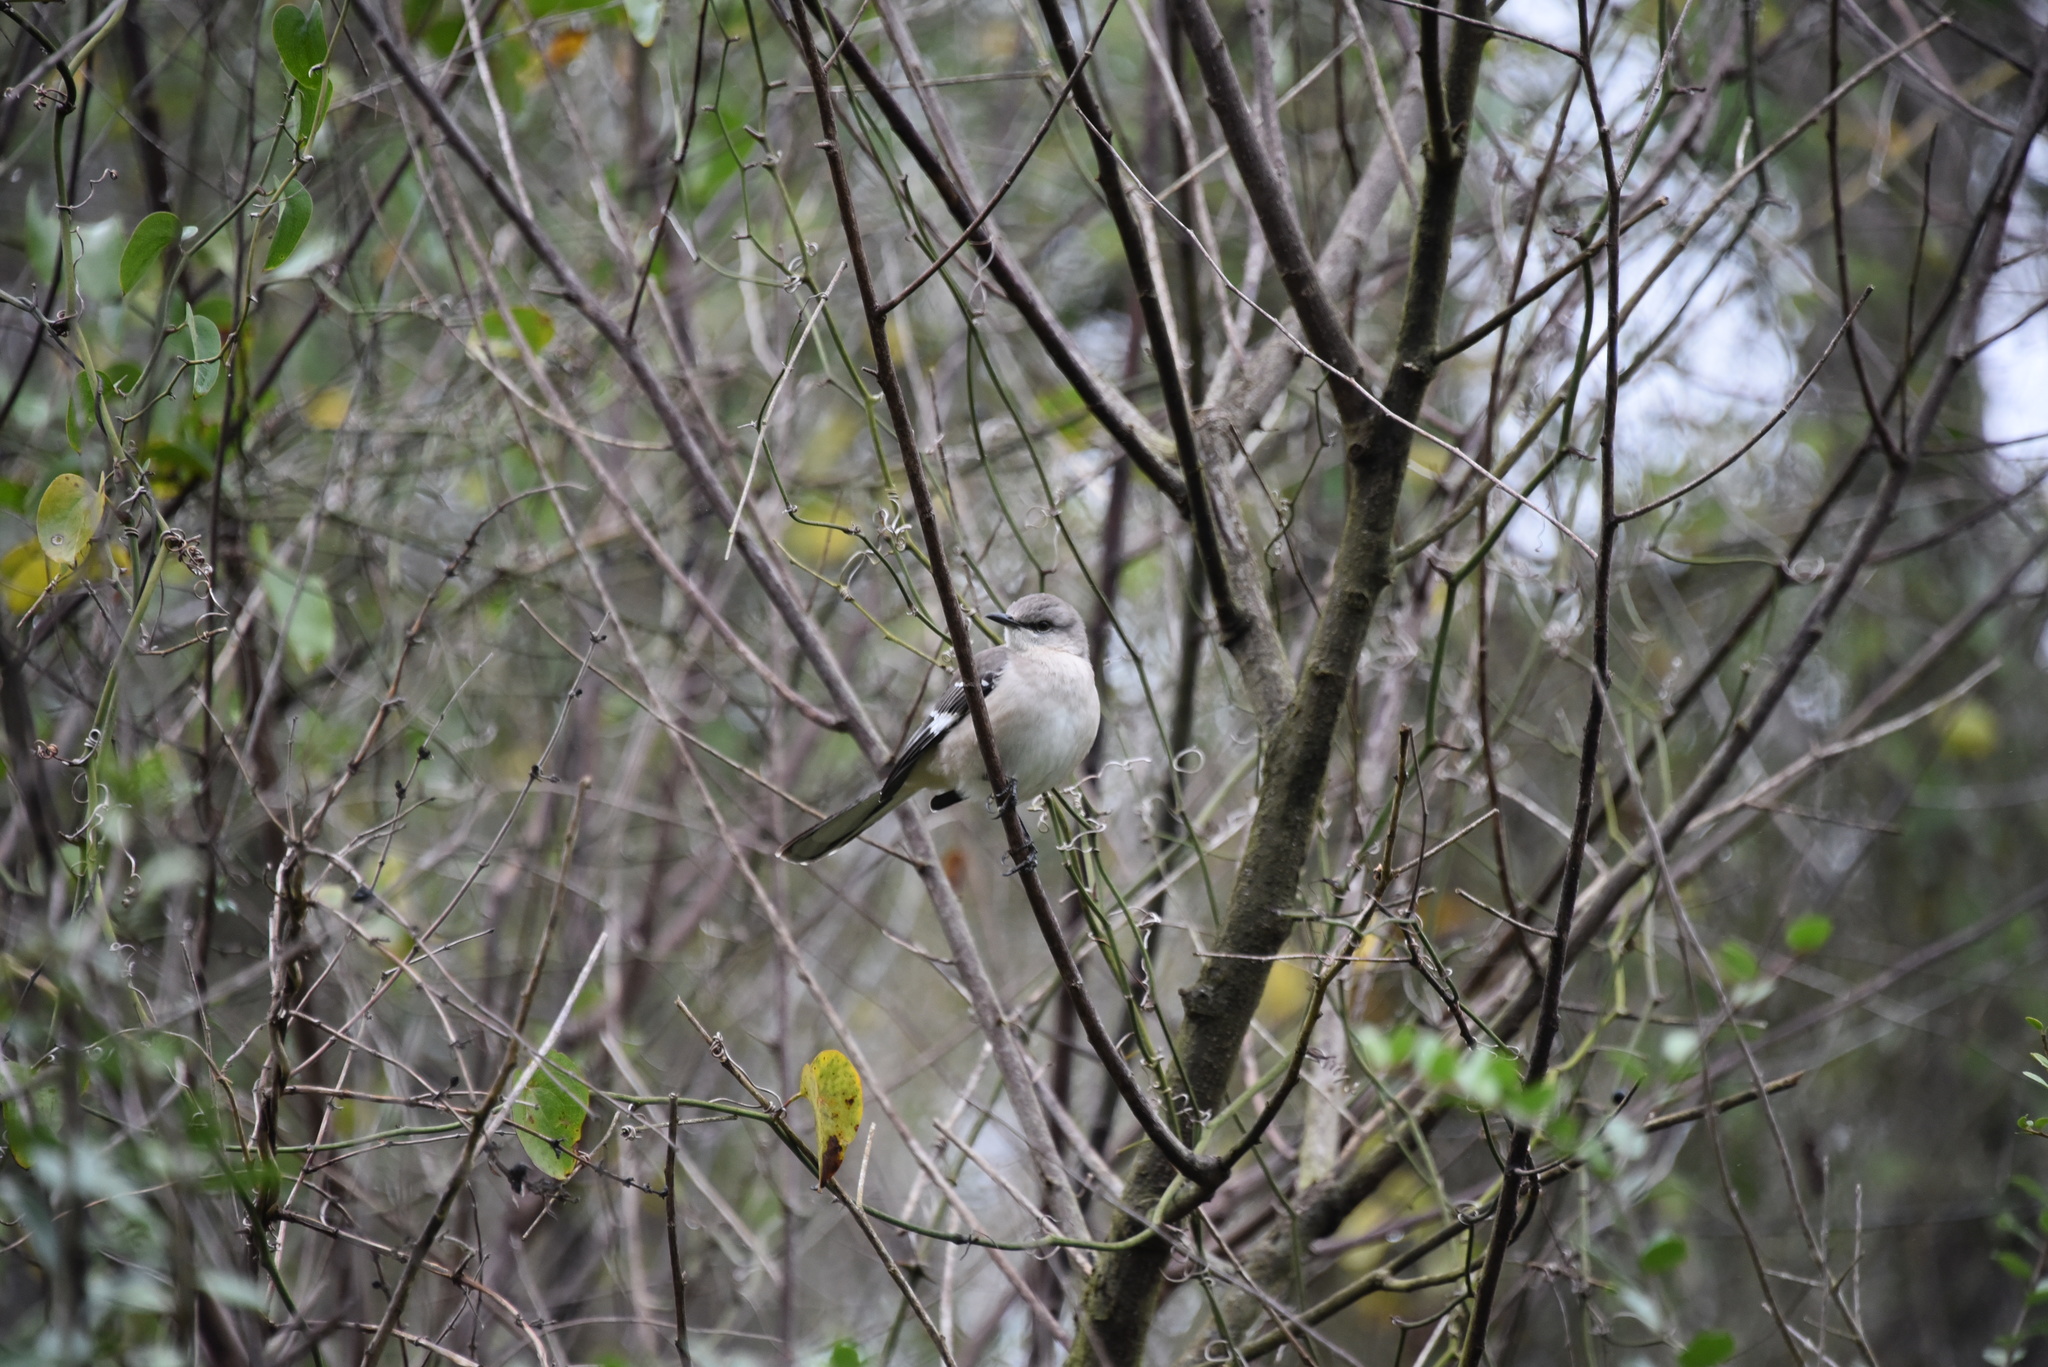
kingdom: Animalia
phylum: Chordata
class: Aves
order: Passeriformes
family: Mimidae
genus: Mimus
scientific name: Mimus polyglottos
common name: Northern mockingbird
